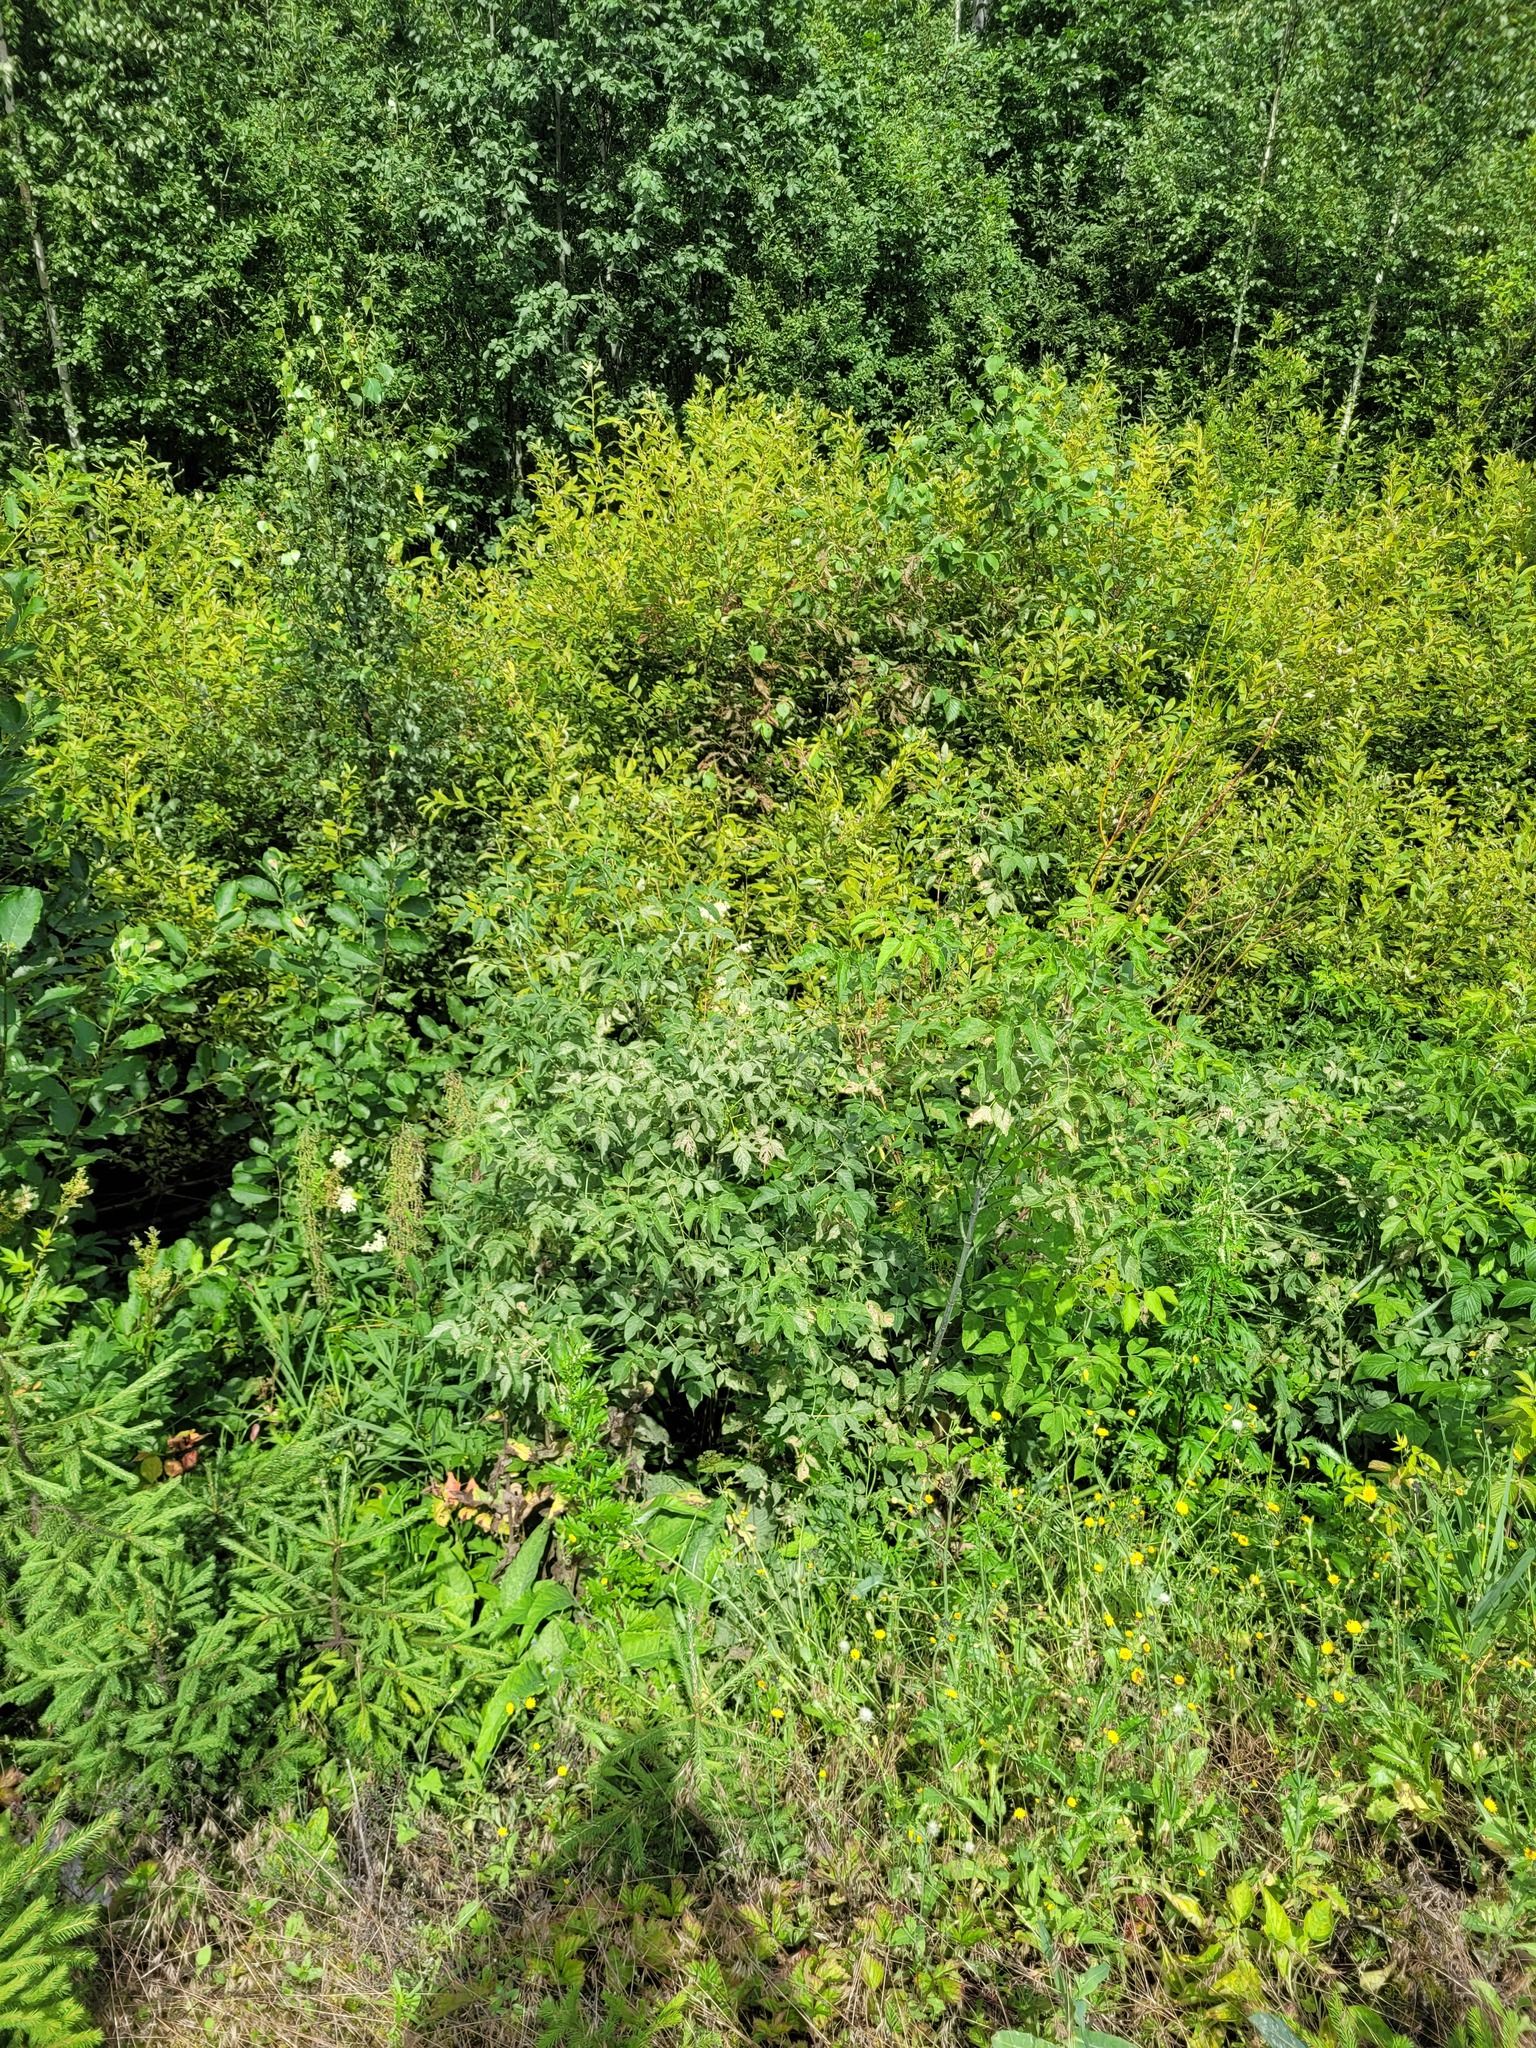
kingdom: Plantae
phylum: Tracheophyta
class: Magnoliopsida
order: Sapindales
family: Sapindaceae
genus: Acer
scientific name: Acer negundo
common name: Ashleaf maple
